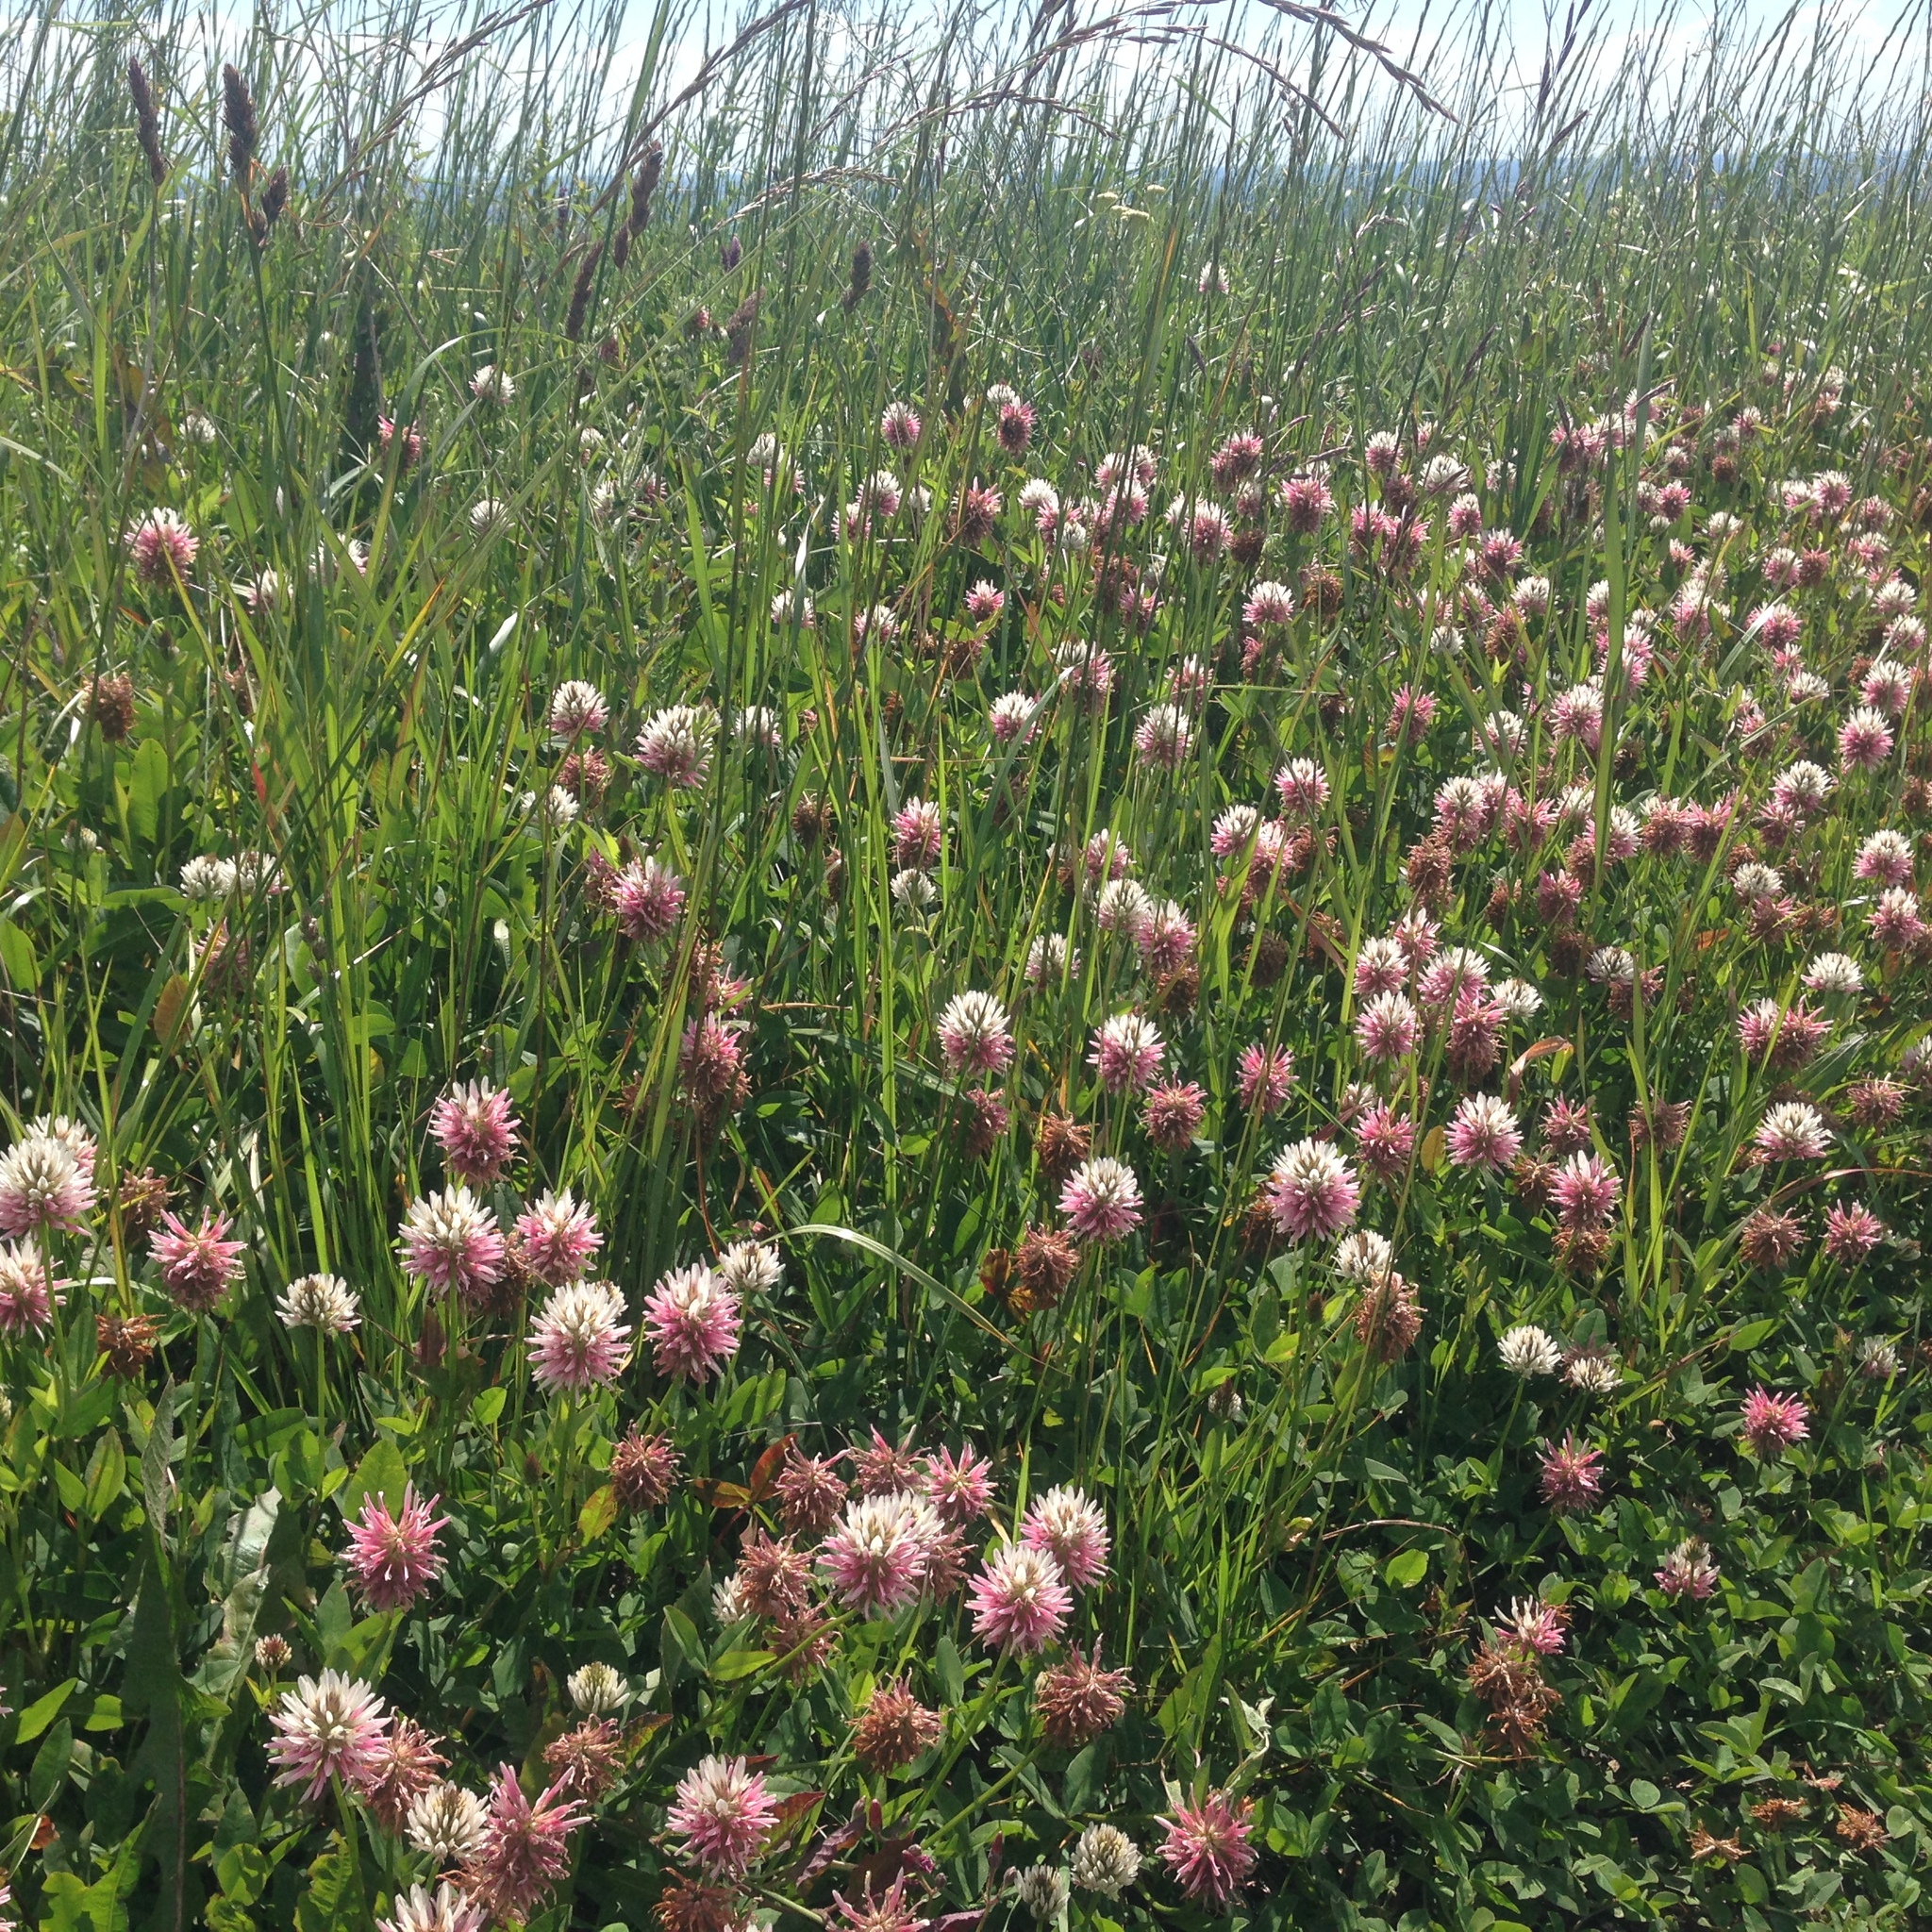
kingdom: Plantae
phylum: Tracheophyta
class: Magnoliopsida
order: Fabales
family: Fabaceae
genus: Trifolium
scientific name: Trifolium ambiguum
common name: Kura clover
